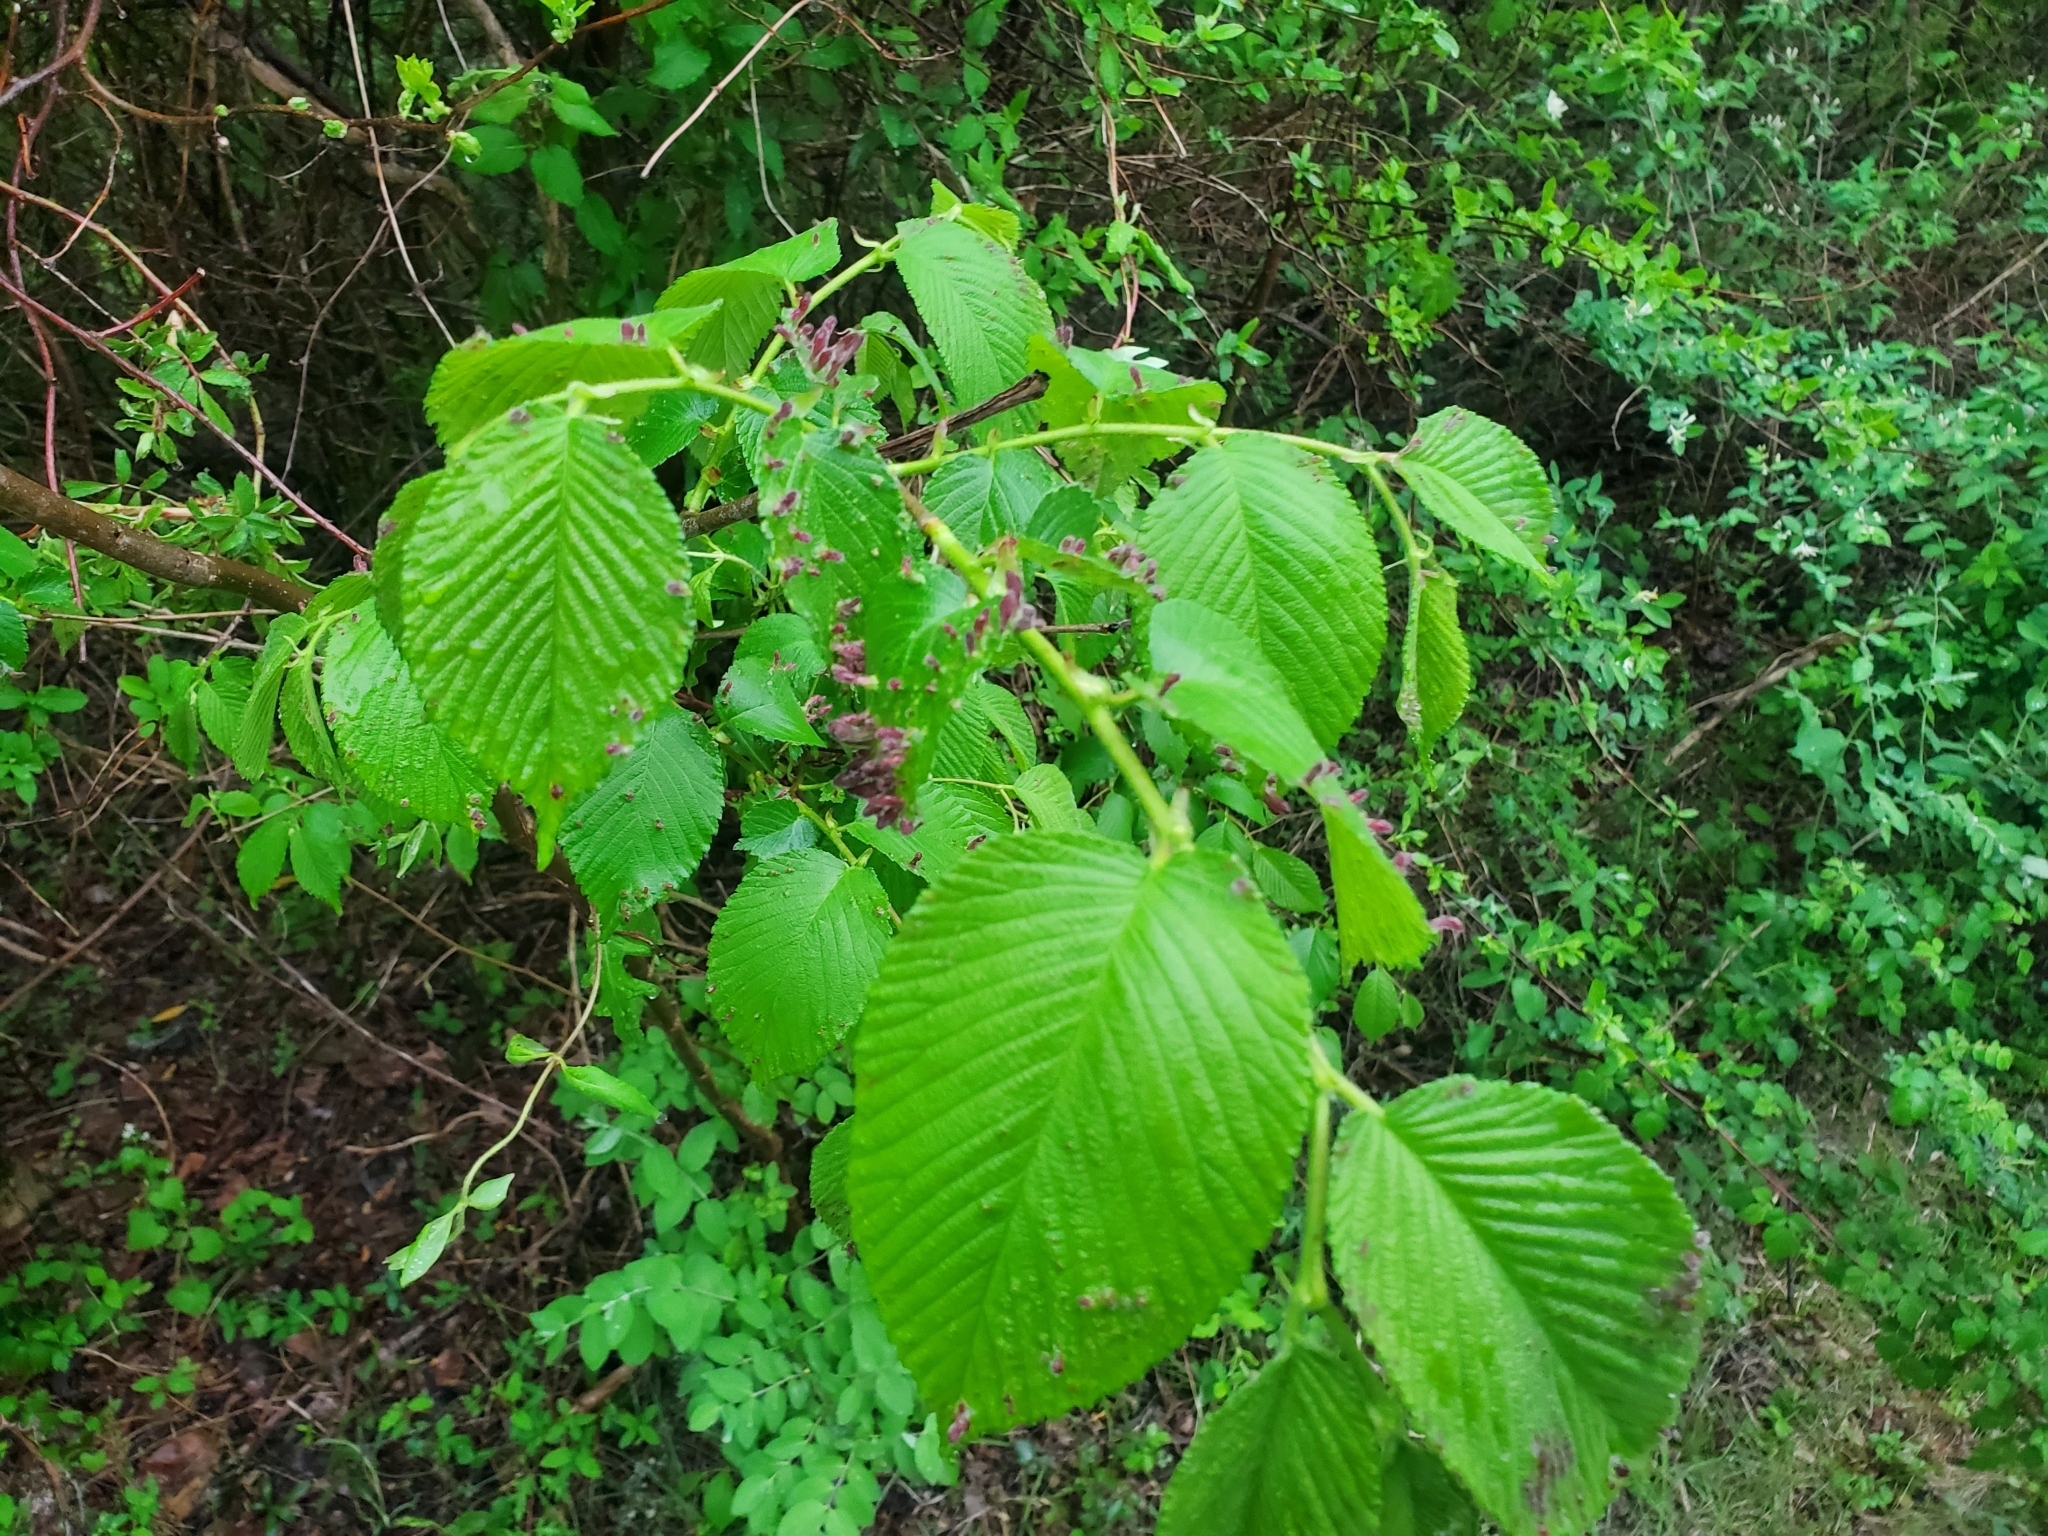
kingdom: Animalia
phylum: Arthropoda
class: Insecta
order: Hemiptera
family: Aphididae
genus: Tetraneura
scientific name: Tetraneura nigriabdominalis
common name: Aphid
